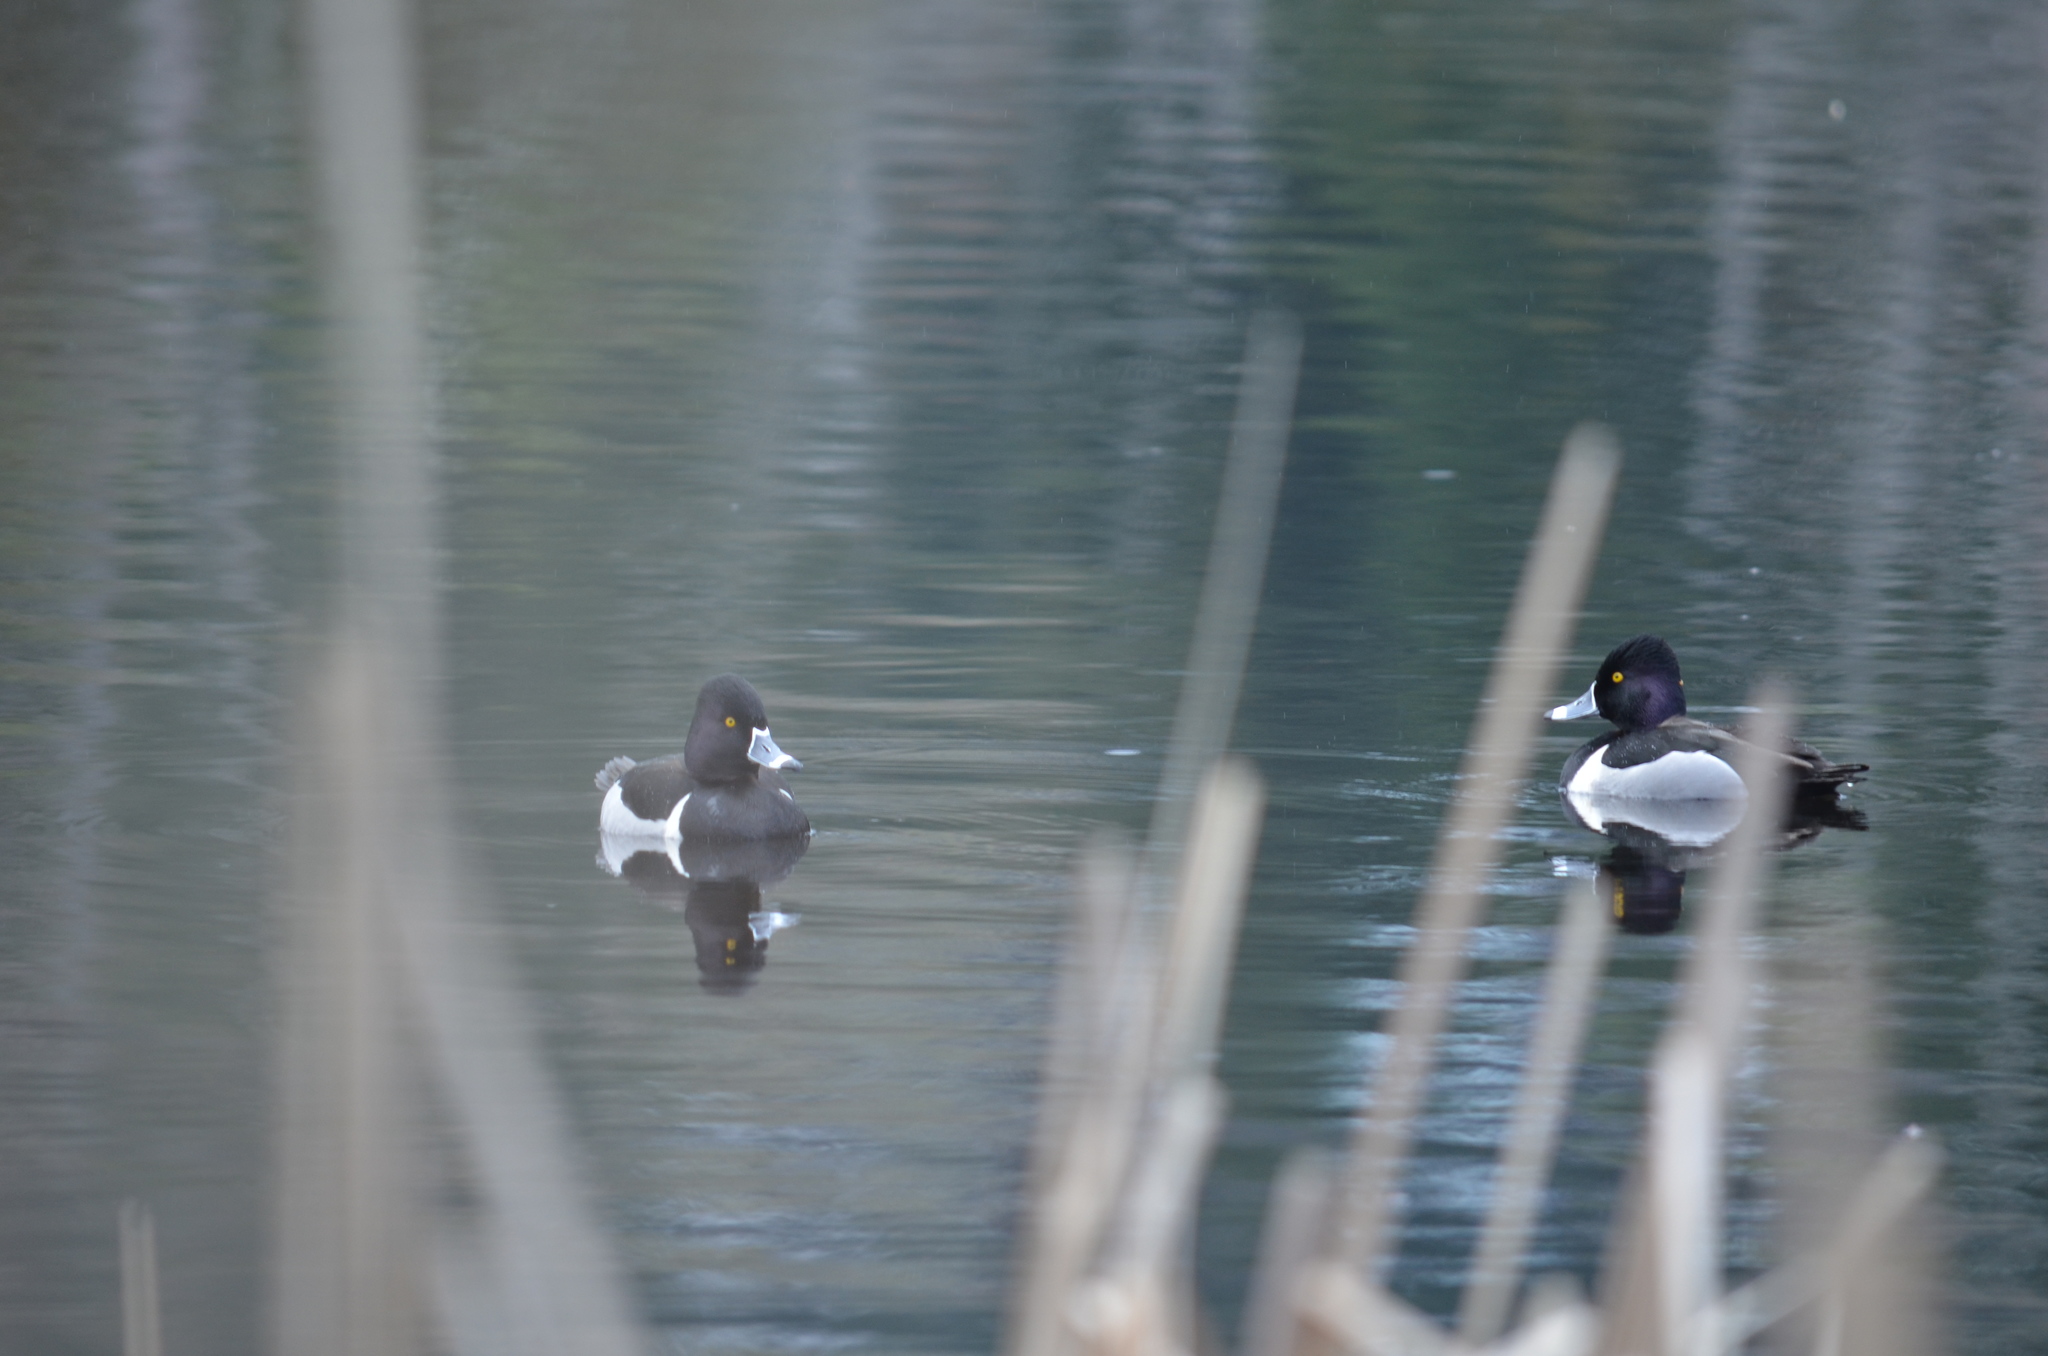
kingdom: Animalia
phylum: Chordata
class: Aves
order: Anseriformes
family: Anatidae
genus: Aythya
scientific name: Aythya collaris
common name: Ring-necked duck
